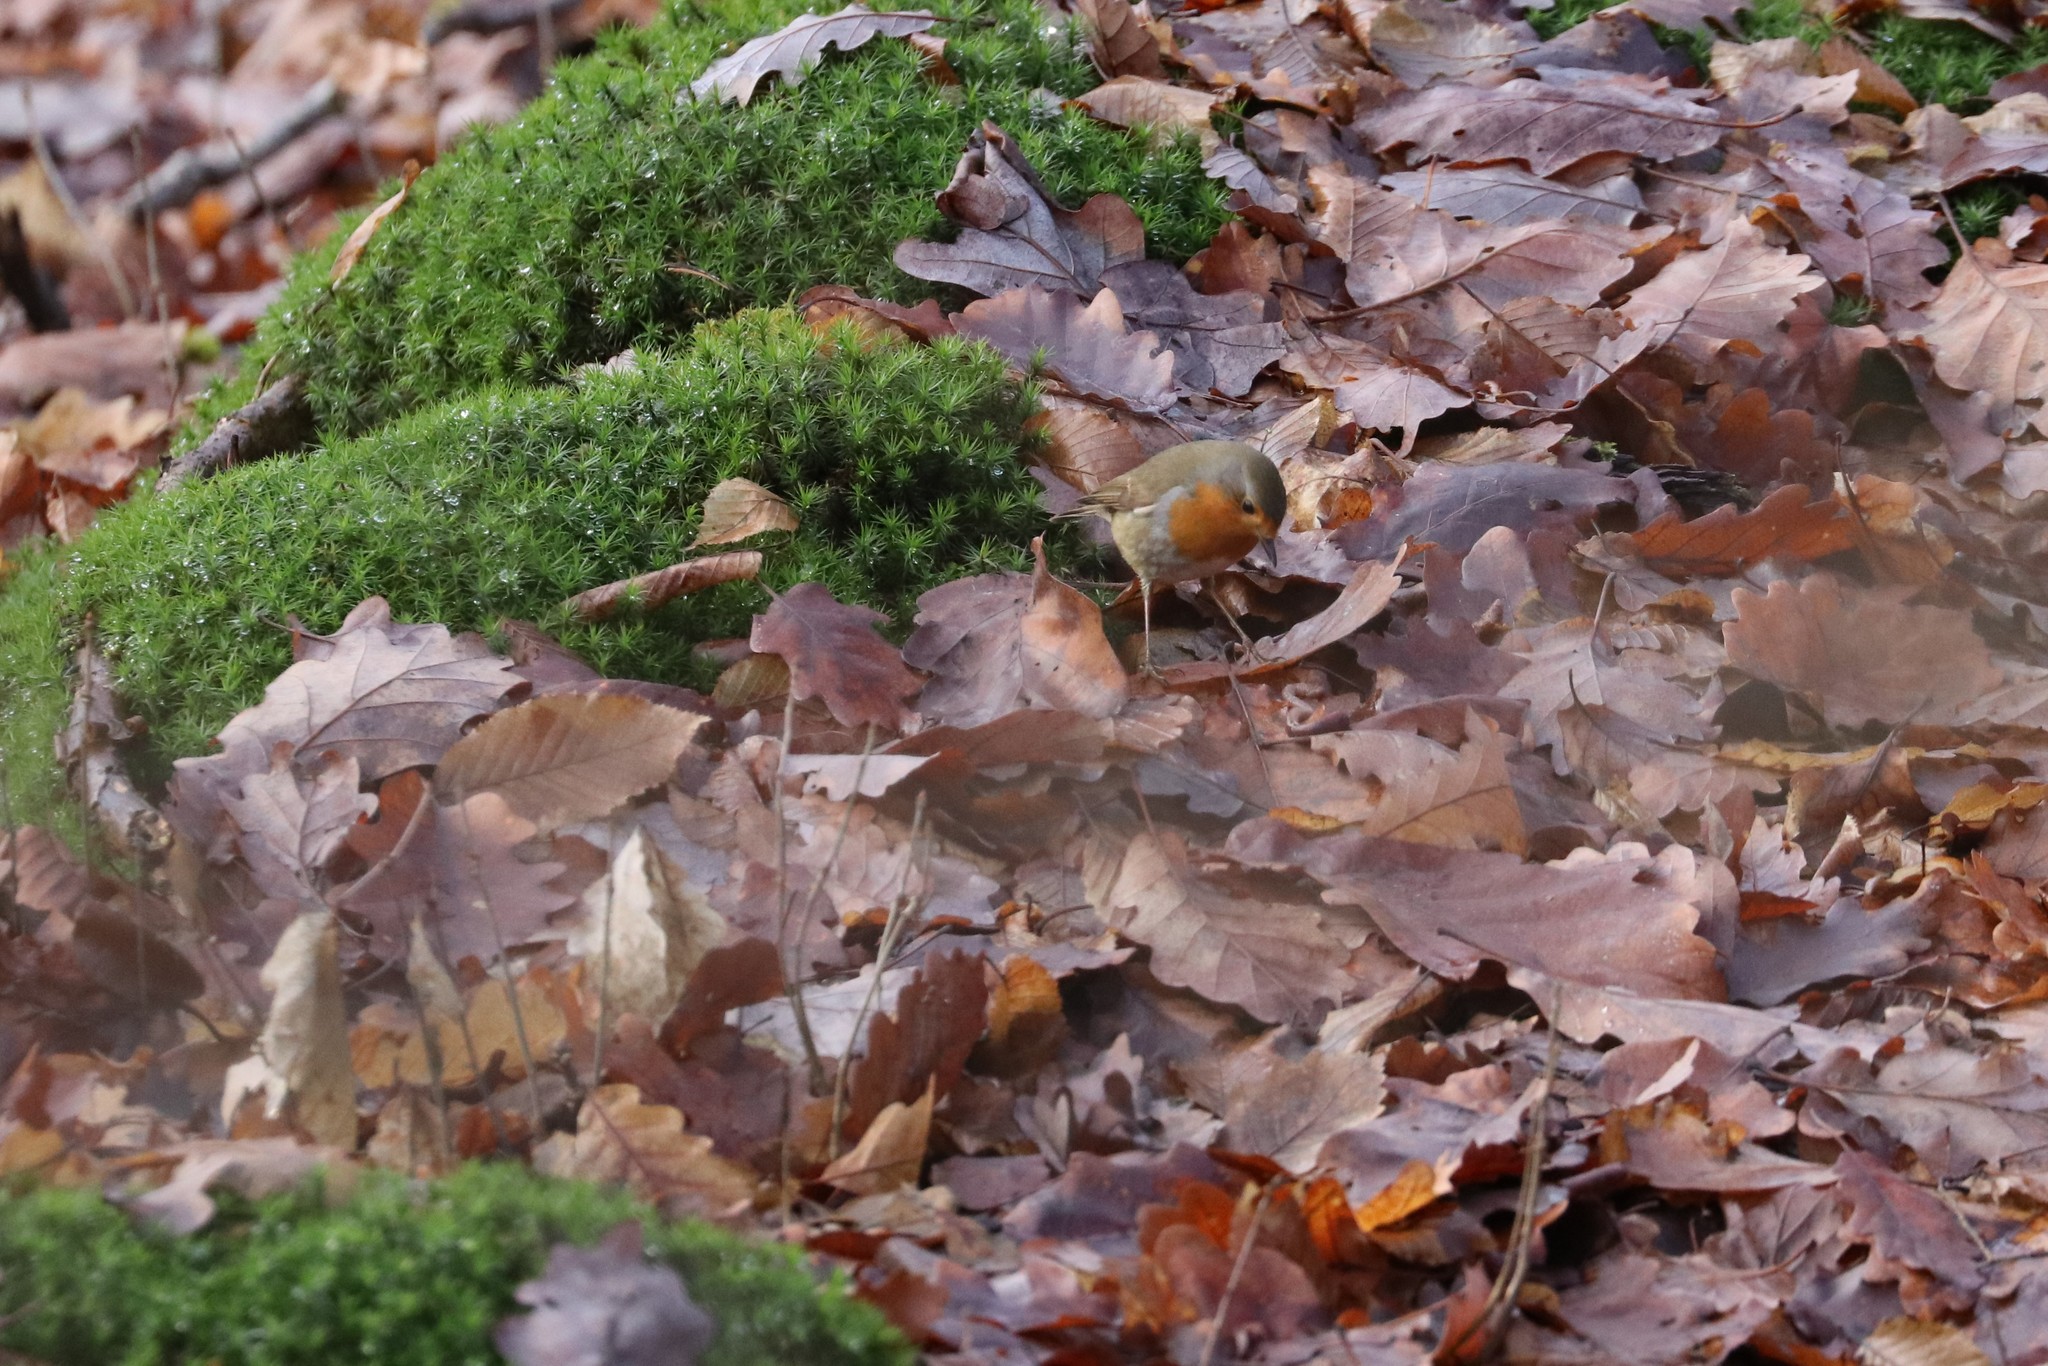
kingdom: Animalia
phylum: Chordata
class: Aves
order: Passeriformes
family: Muscicapidae
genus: Erithacus
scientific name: Erithacus rubecula
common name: European robin
